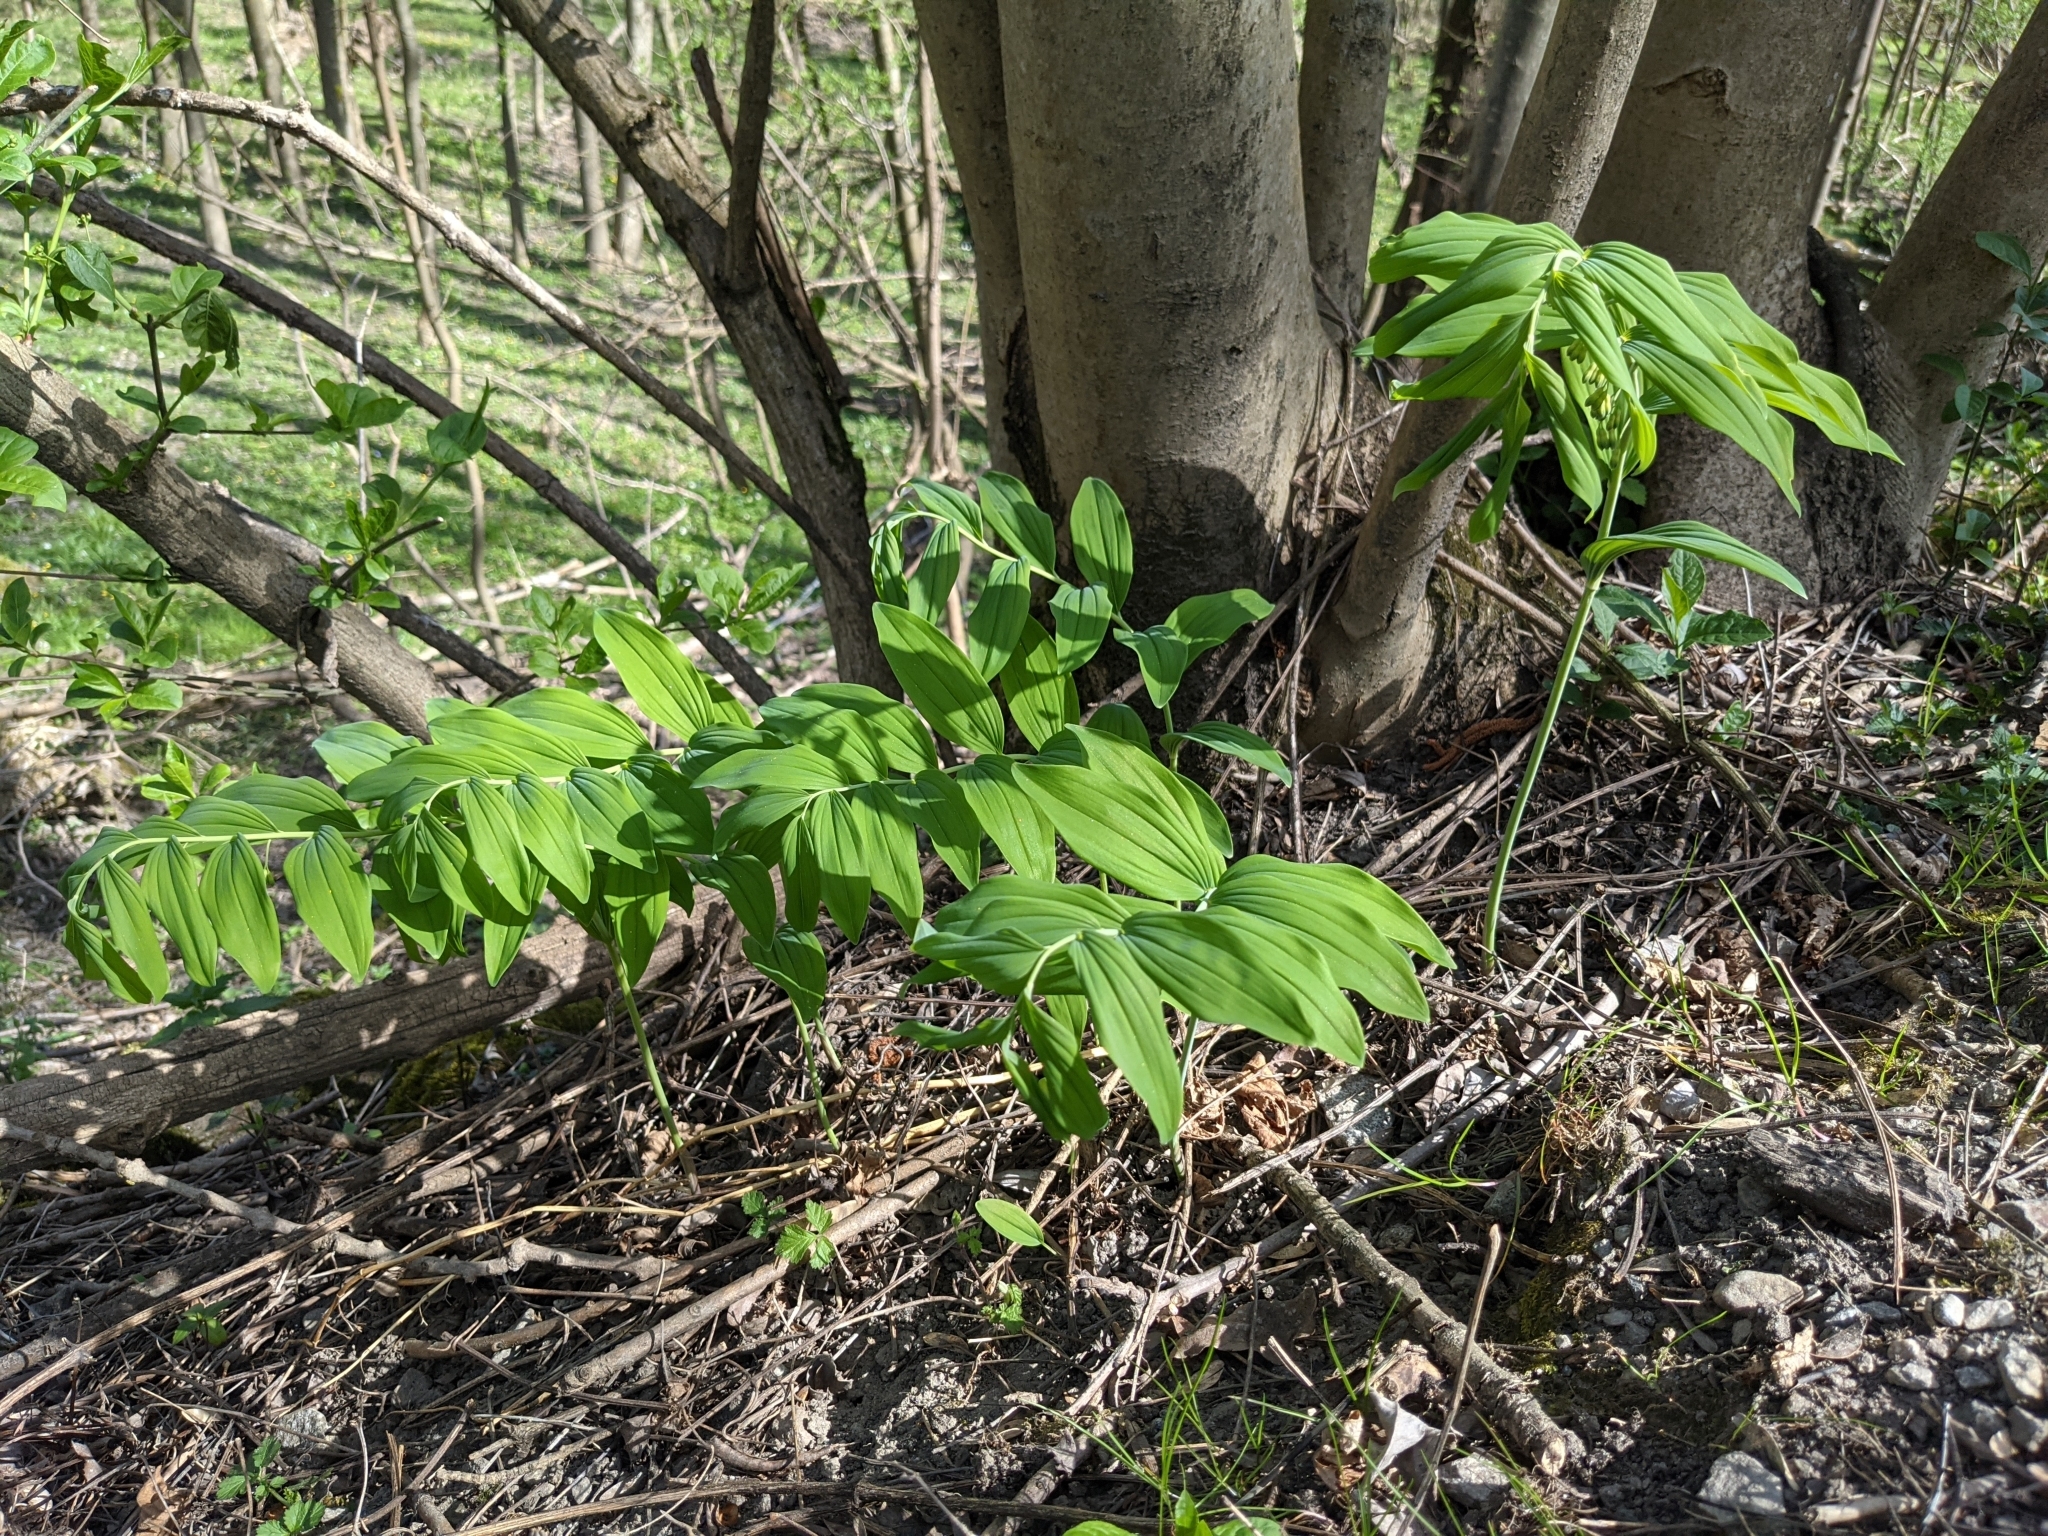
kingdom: Plantae
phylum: Tracheophyta
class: Liliopsida
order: Asparagales
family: Asparagaceae
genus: Polygonatum
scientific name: Polygonatum multiflorum
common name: Solomon's-seal
